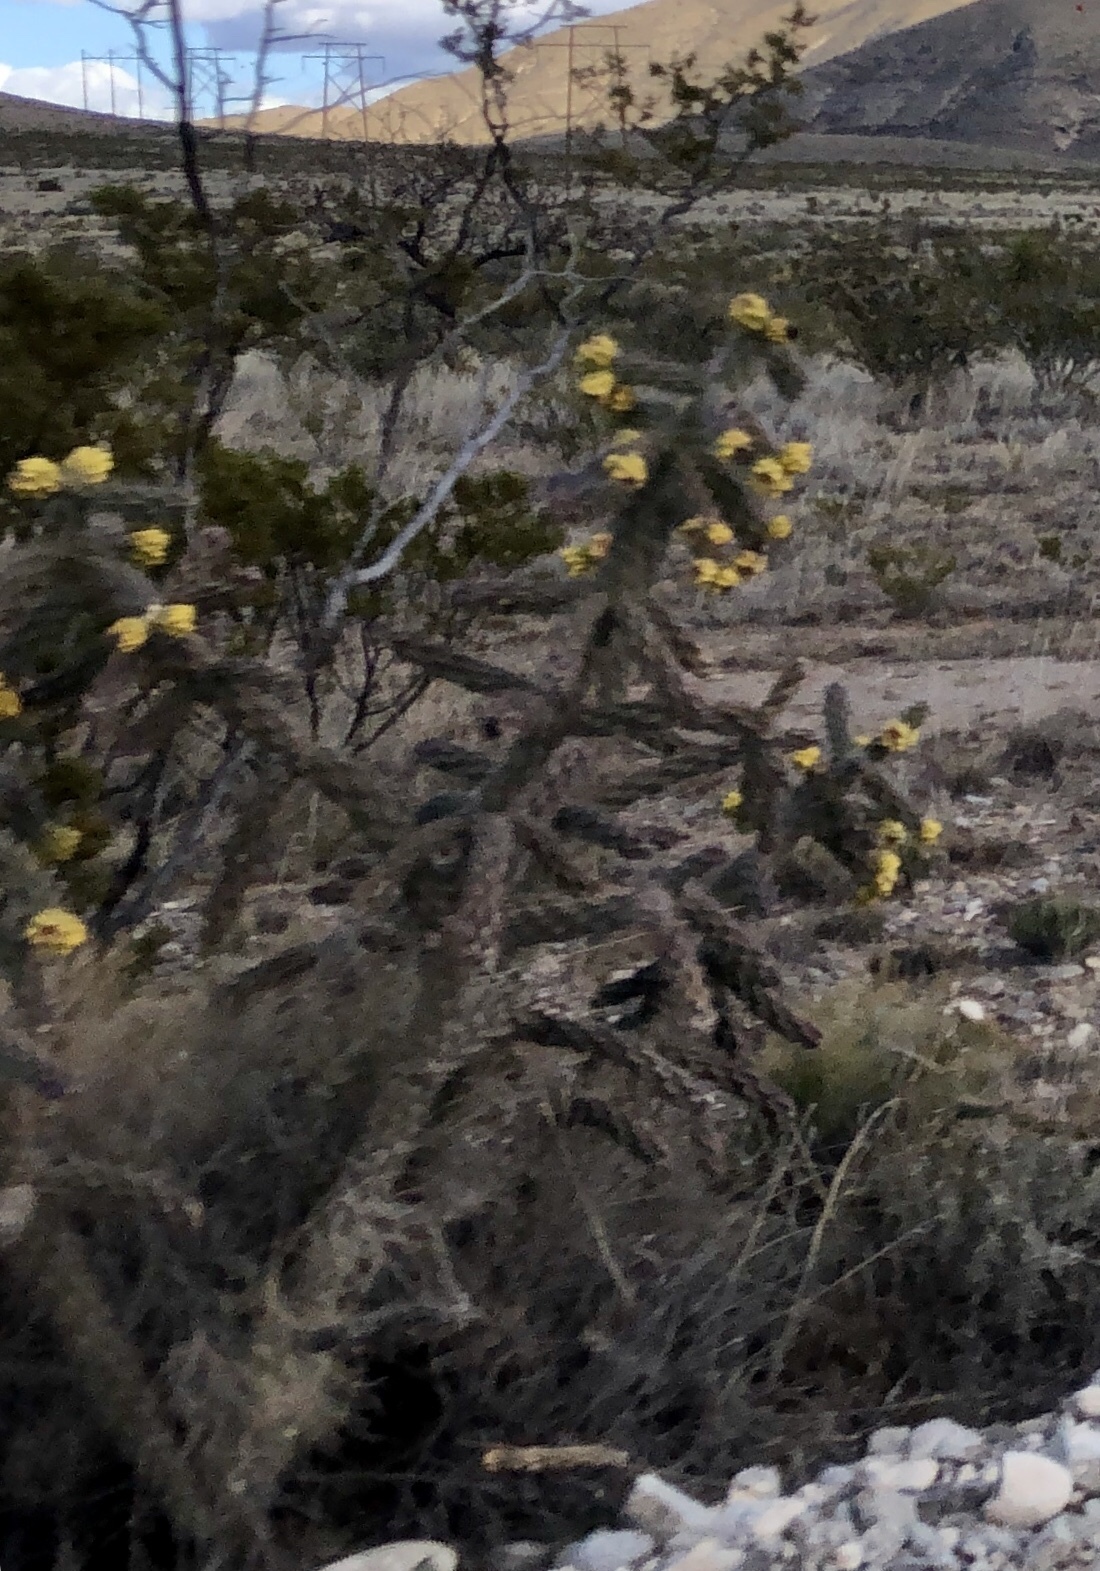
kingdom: Plantae
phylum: Tracheophyta
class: Magnoliopsida
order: Caryophyllales
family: Cactaceae
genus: Cylindropuntia
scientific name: Cylindropuntia imbricata
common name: Candelabrum cactus
